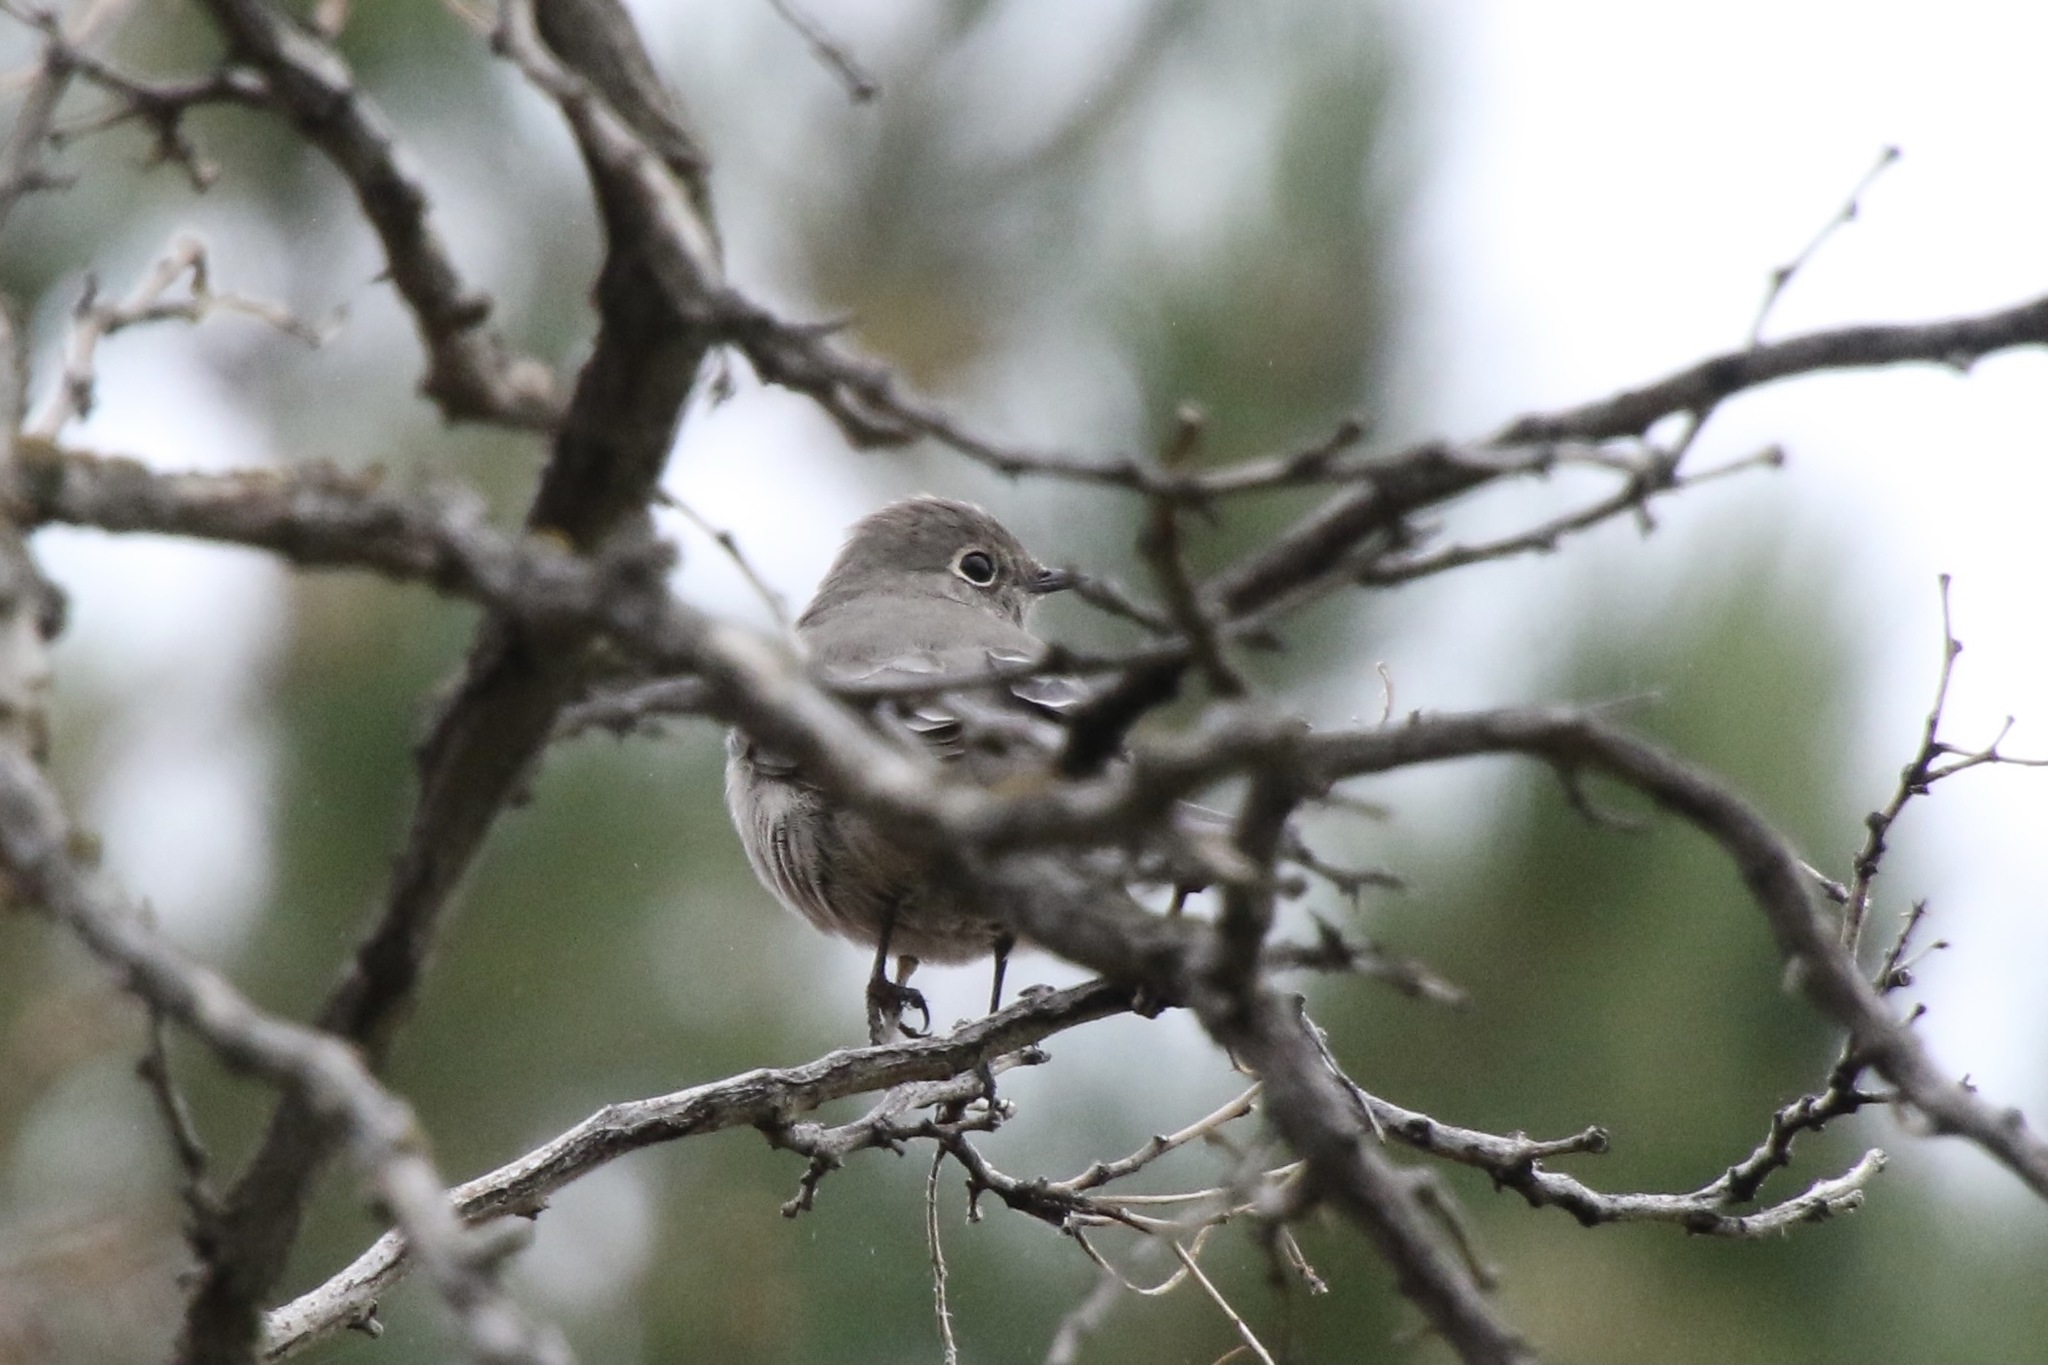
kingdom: Animalia
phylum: Chordata
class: Aves
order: Passeriformes
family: Turdidae
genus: Myadestes
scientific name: Myadestes townsendi
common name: Townsend's solitaire
